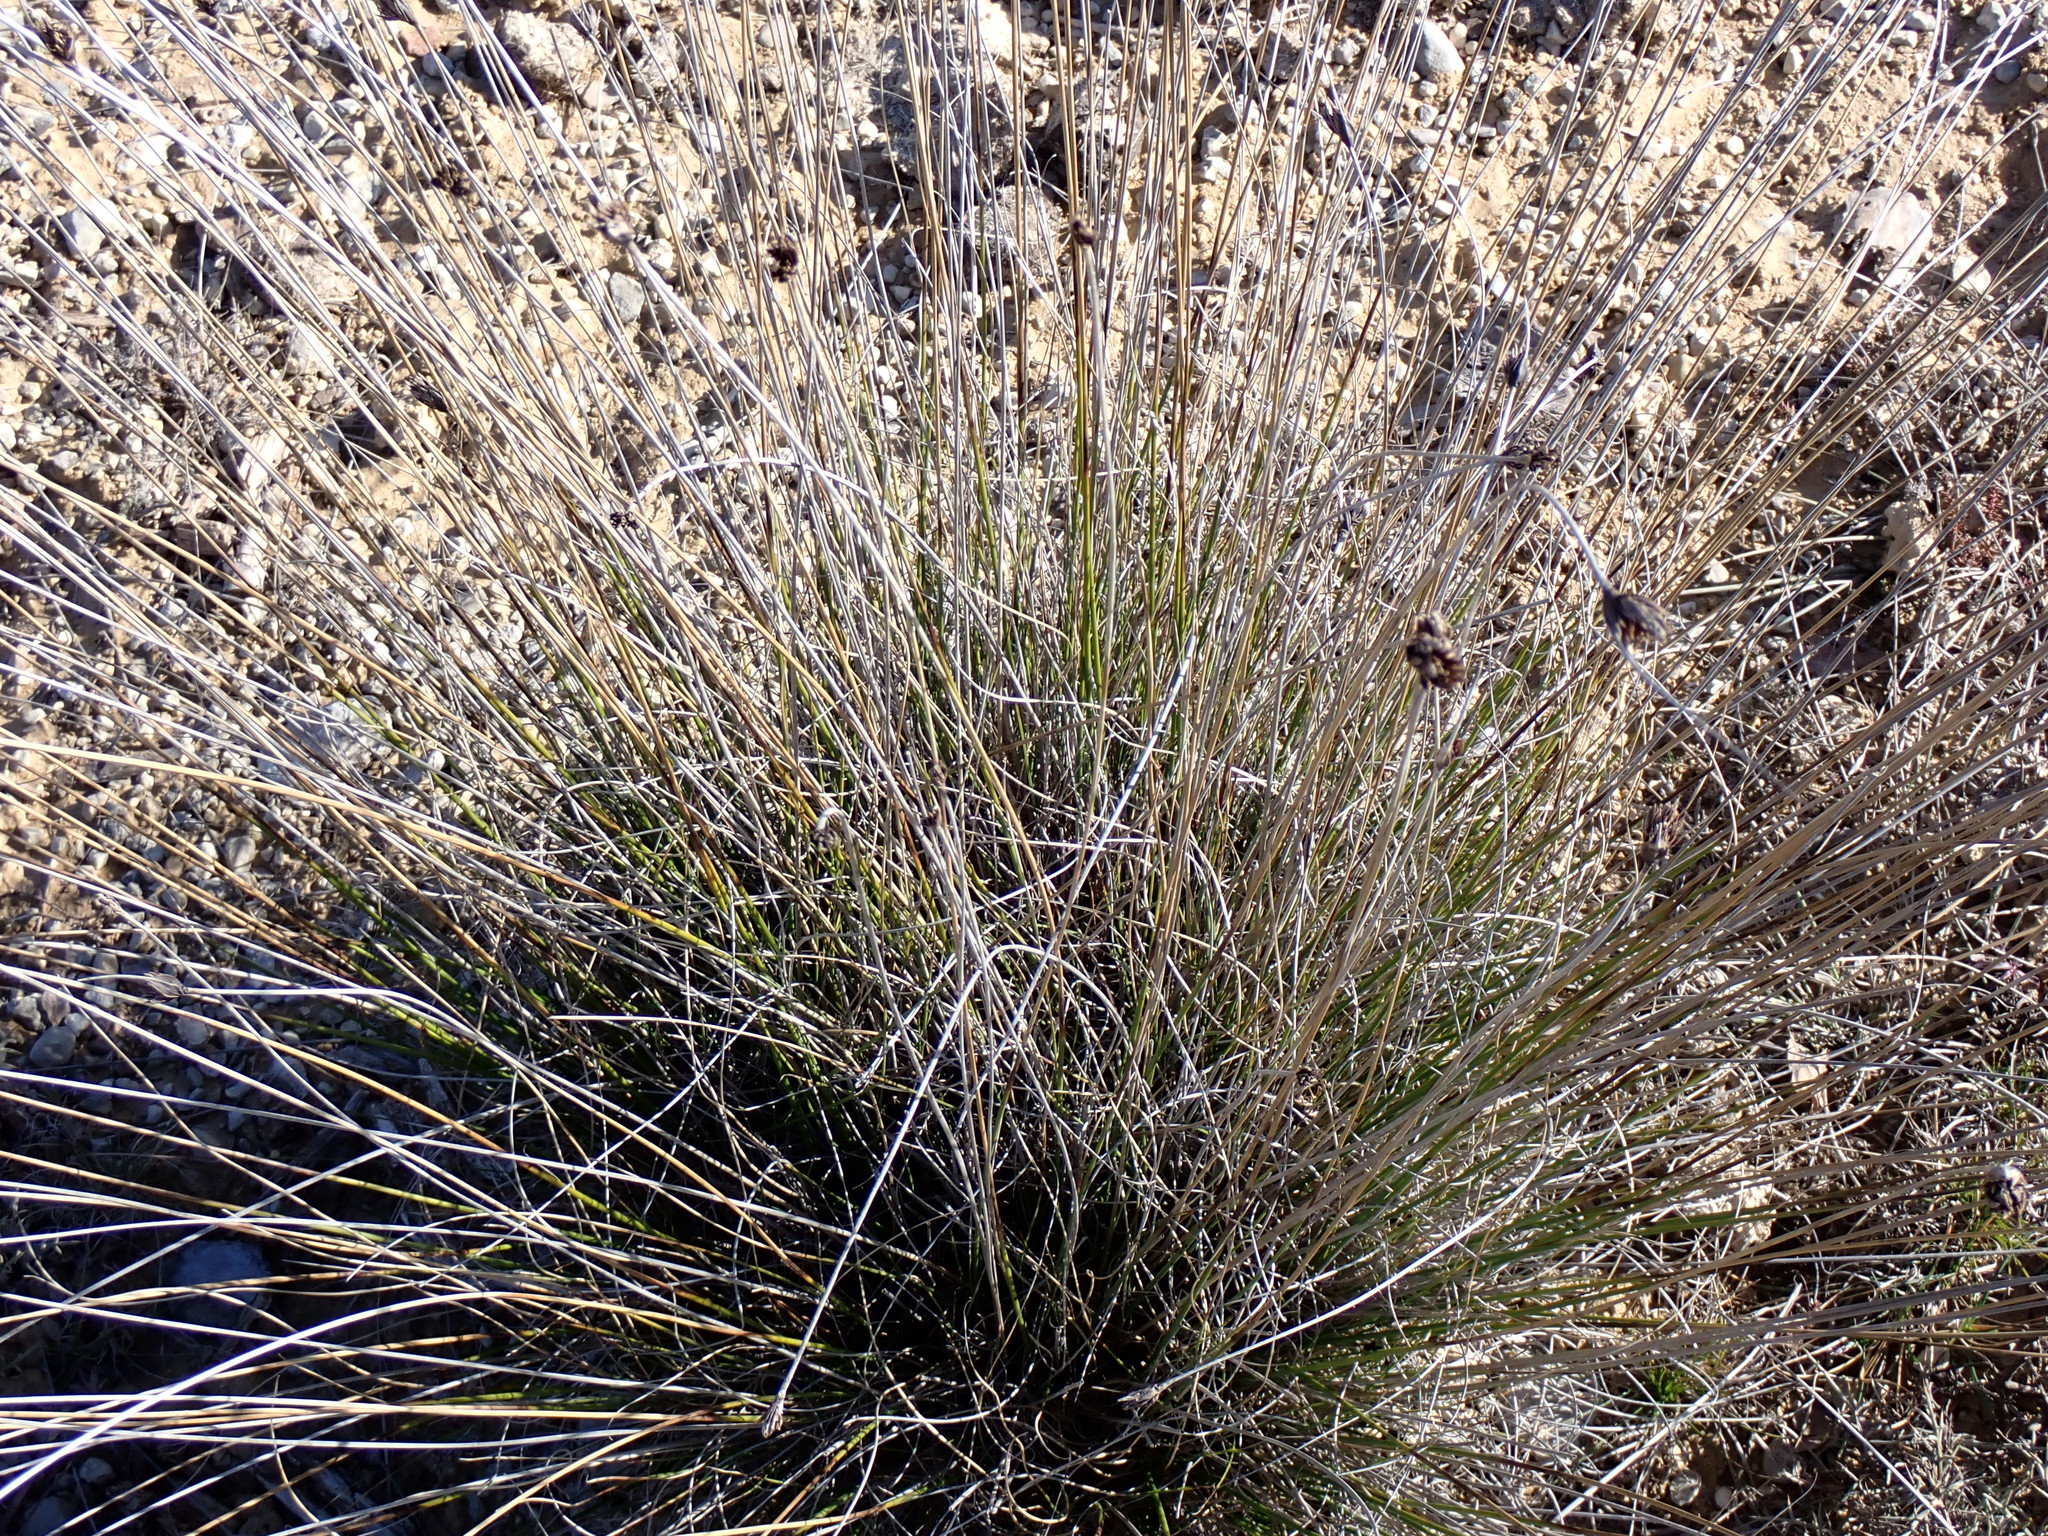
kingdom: Plantae
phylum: Tracheophyta
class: Liliopsida
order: Poales
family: Cyperaceae
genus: Schoenus
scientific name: Schoenus nigricans
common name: Black bog-rush
